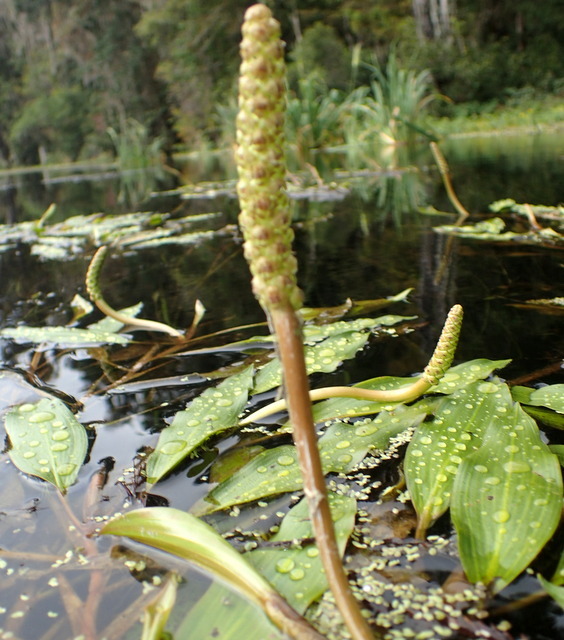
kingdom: Plantae
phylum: Tracheophyta
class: Liliopsida
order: Alismatales
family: Potamogetonaceae
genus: Potamogeton
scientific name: Potamogeton nodosus
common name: Loddon pondweed
